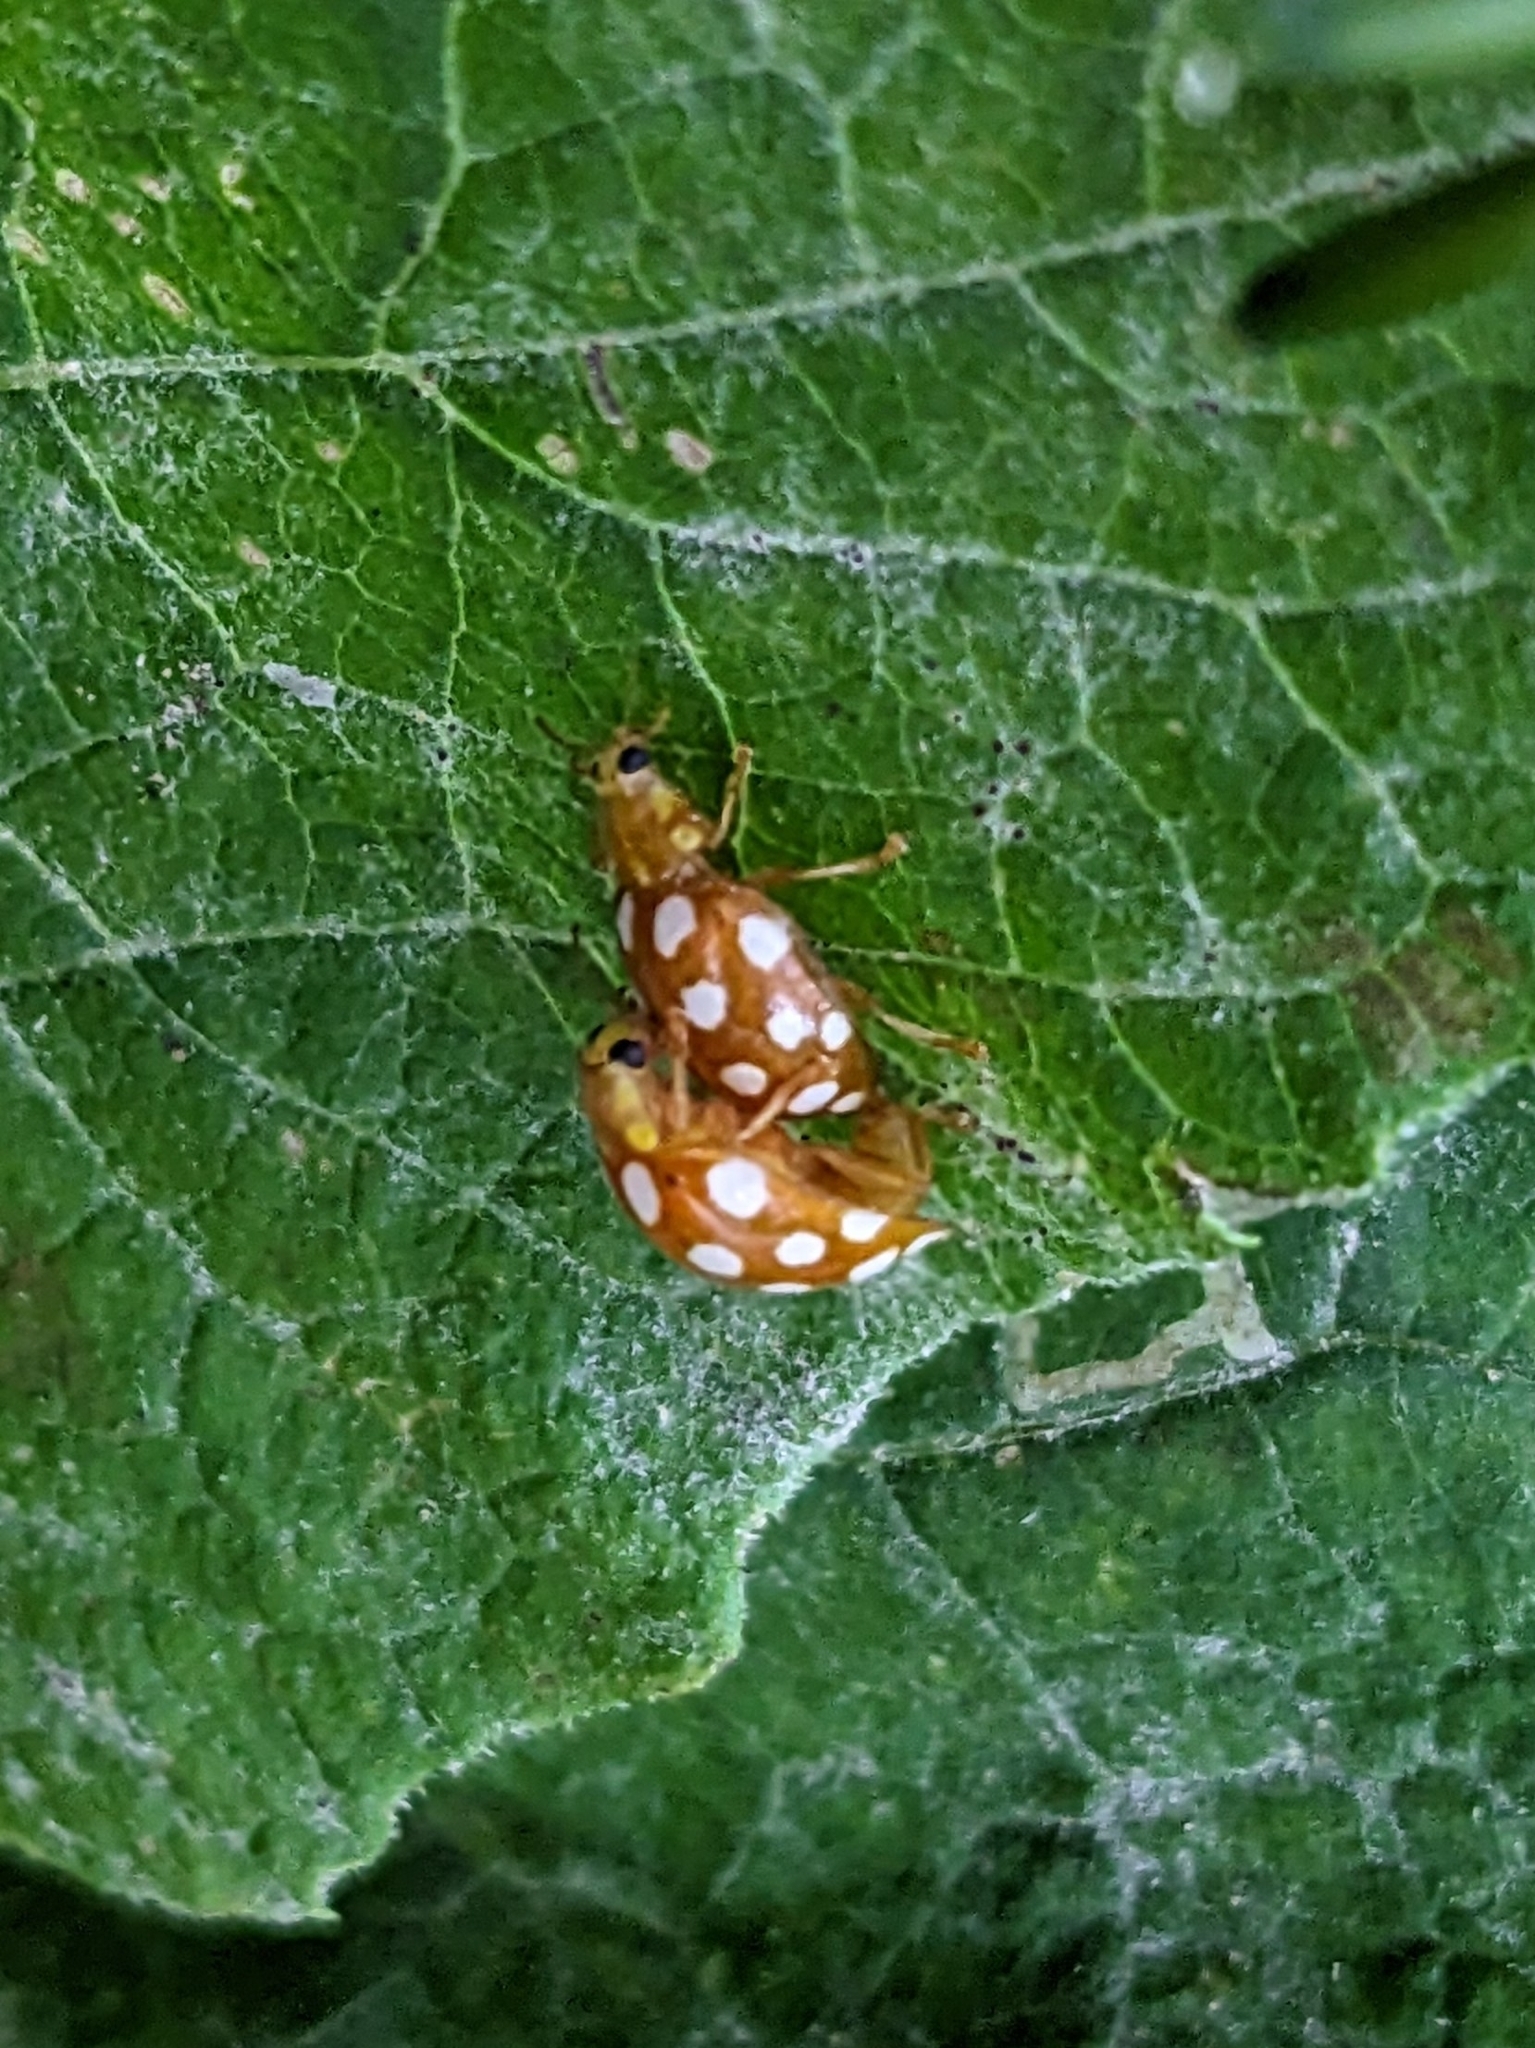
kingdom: Animalia
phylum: Arthropoda
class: Insecta
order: Coleoptera
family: Coccinellidae
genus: Halyzia
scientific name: Halyzia sedecimguttata
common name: Orange ladybird
